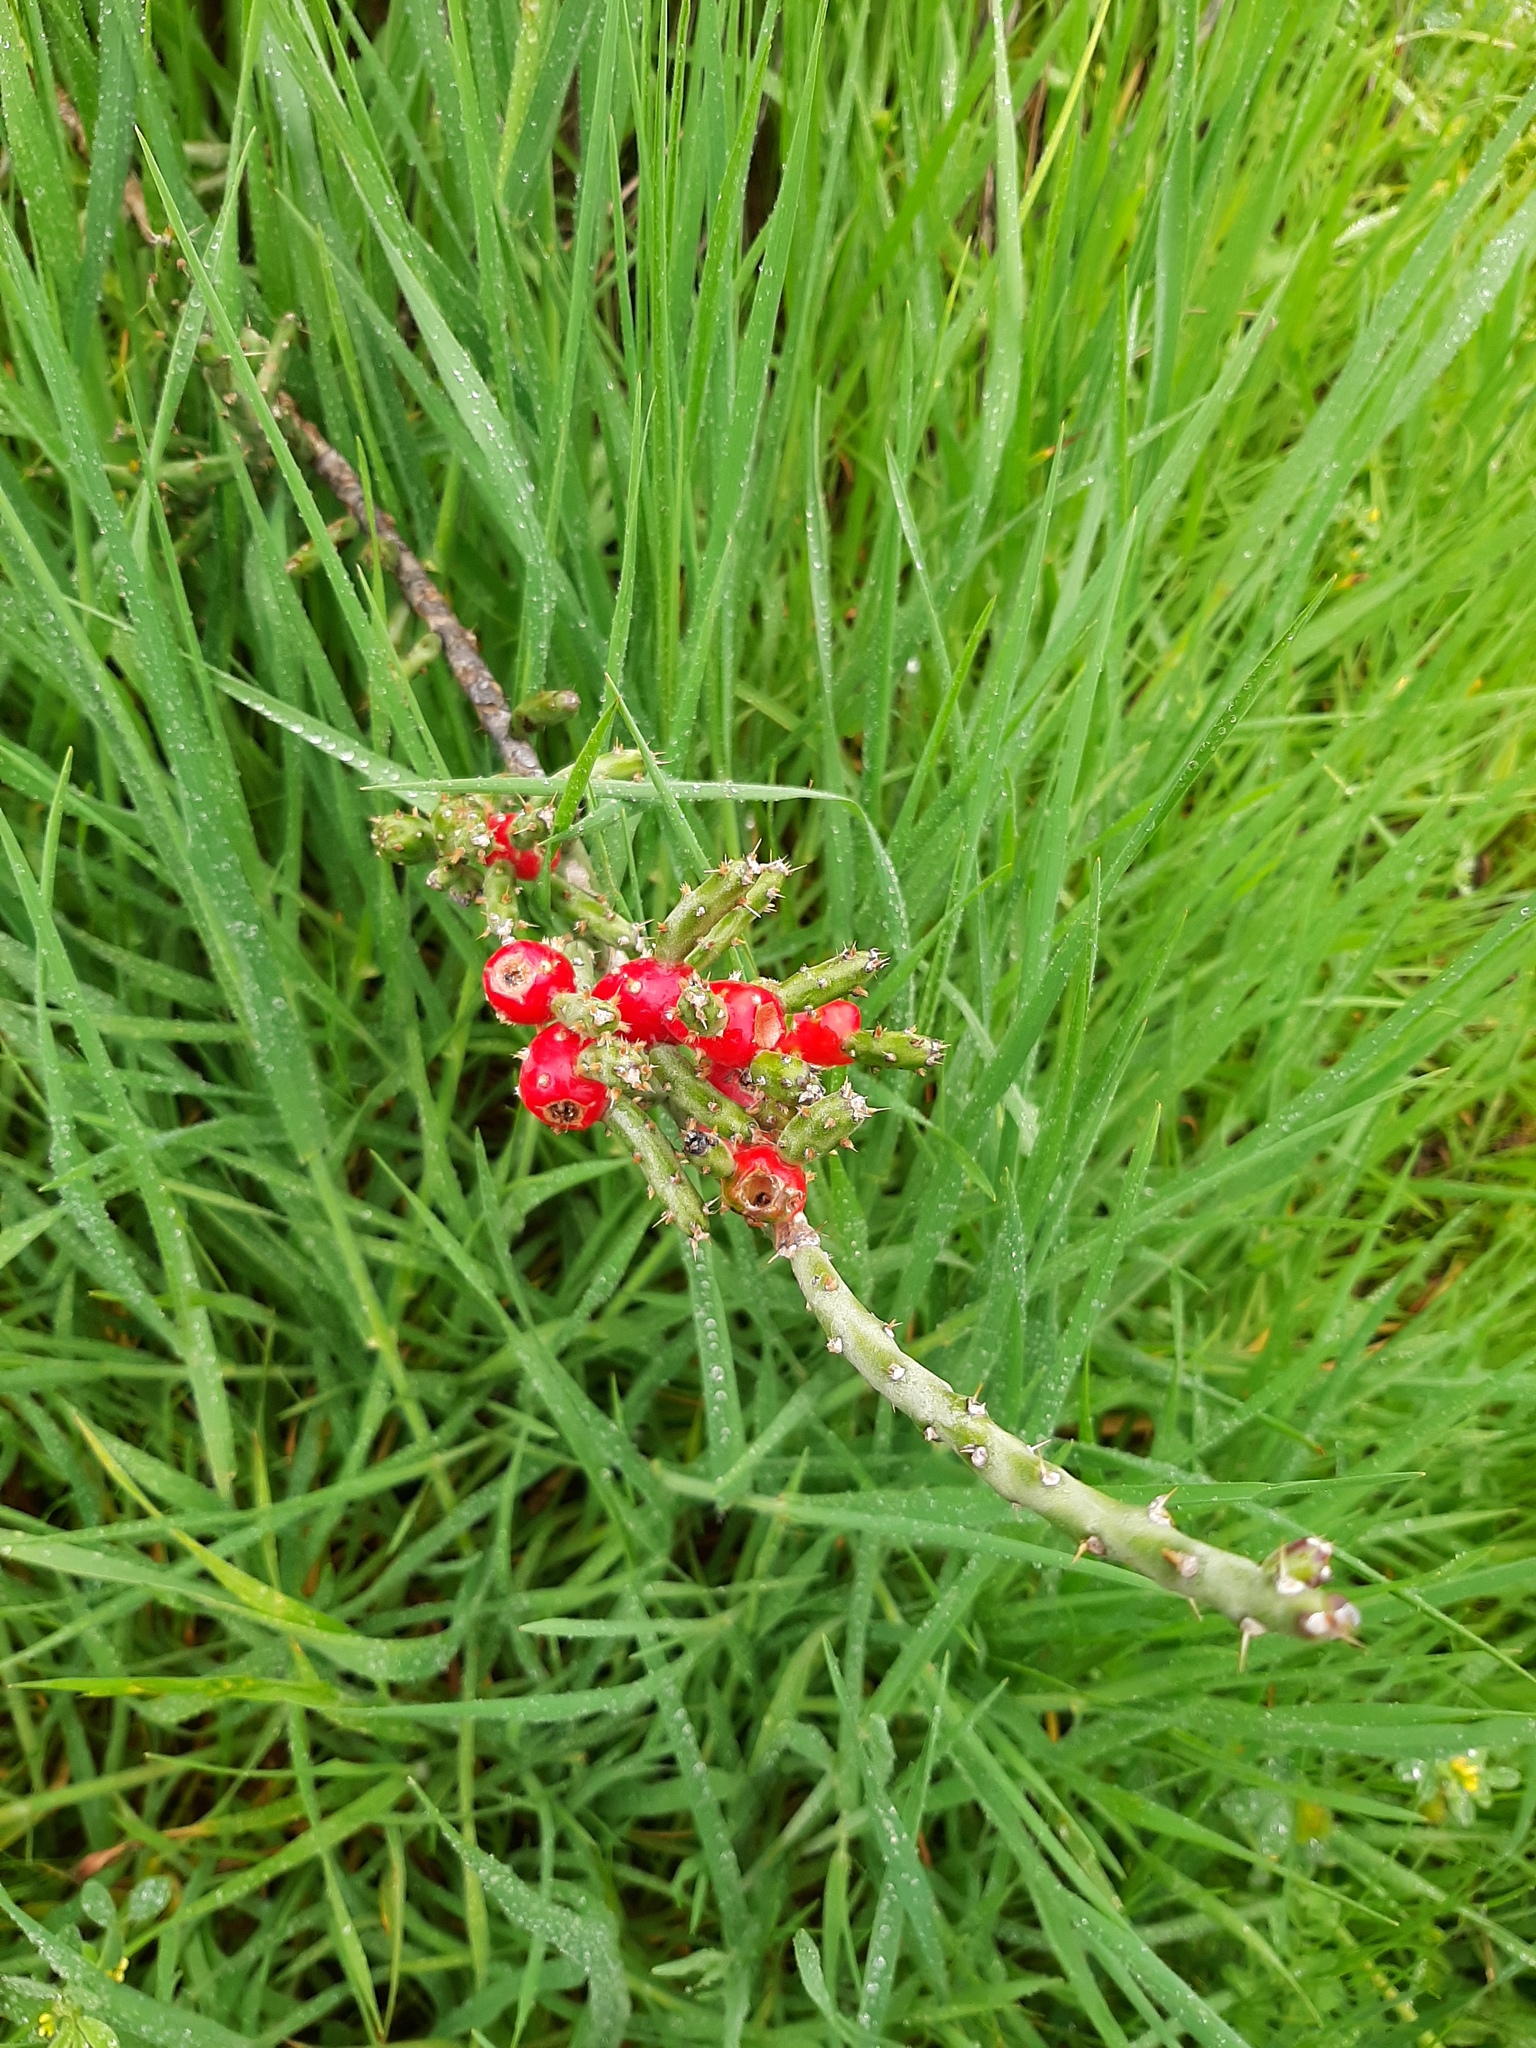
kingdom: Plantae
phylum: Tracheophyta
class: Magnoliopsida
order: Caryophyllales
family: Cactaceae
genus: Cylindropuntia
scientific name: Cylindropuntia leptocaulis
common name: Christmas cactus
